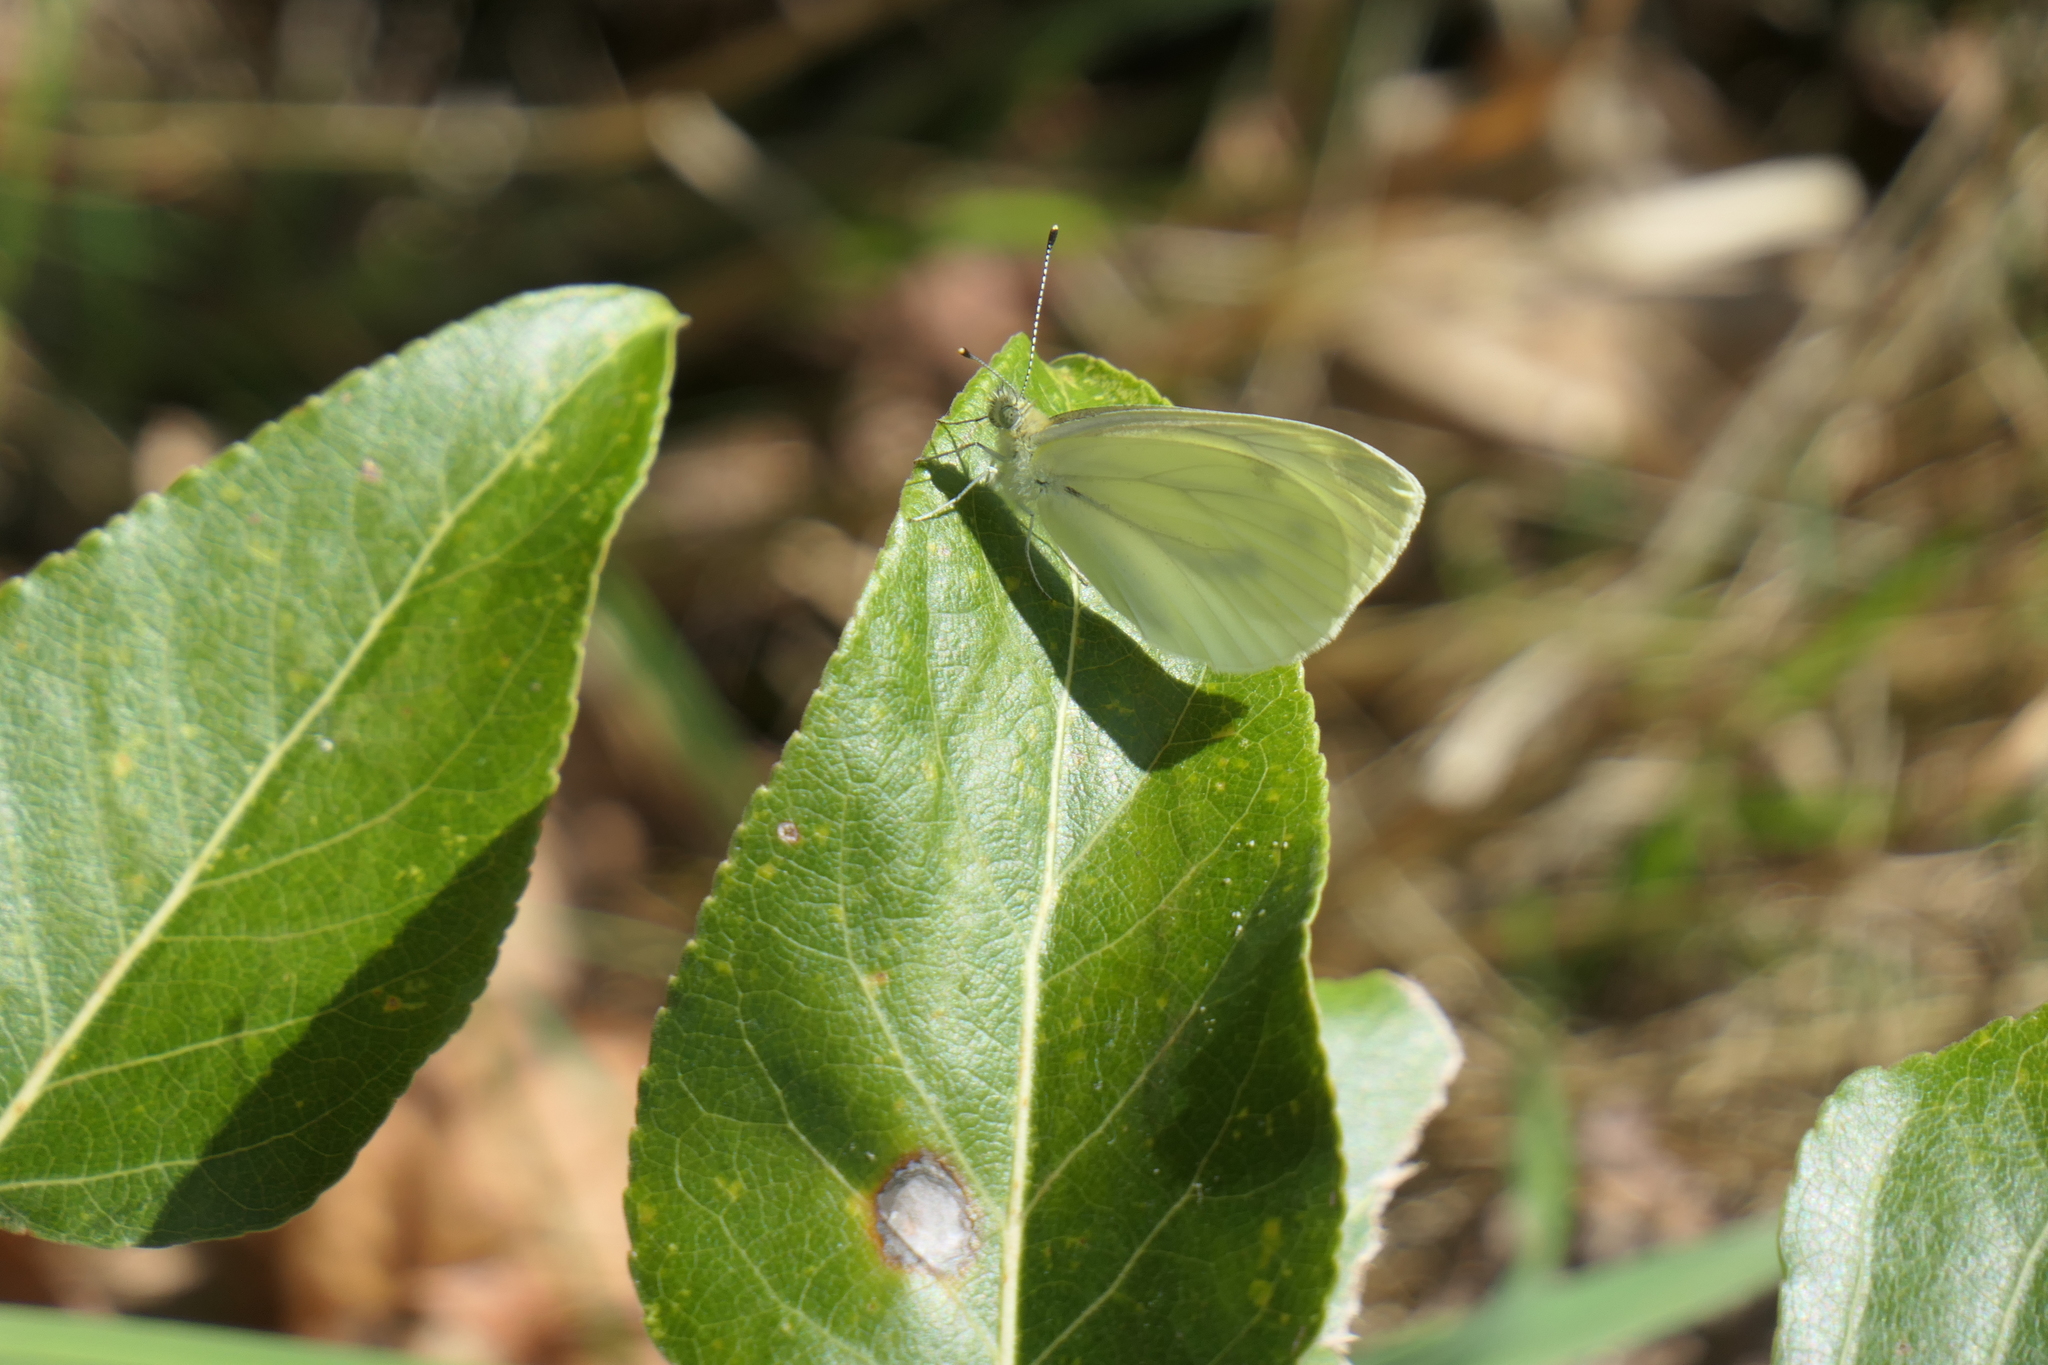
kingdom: Animalia
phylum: Arthropoda
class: Insecta
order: Lepidoptera
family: Pieridae
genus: Pieris
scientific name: Pieris rapae
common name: Small white
